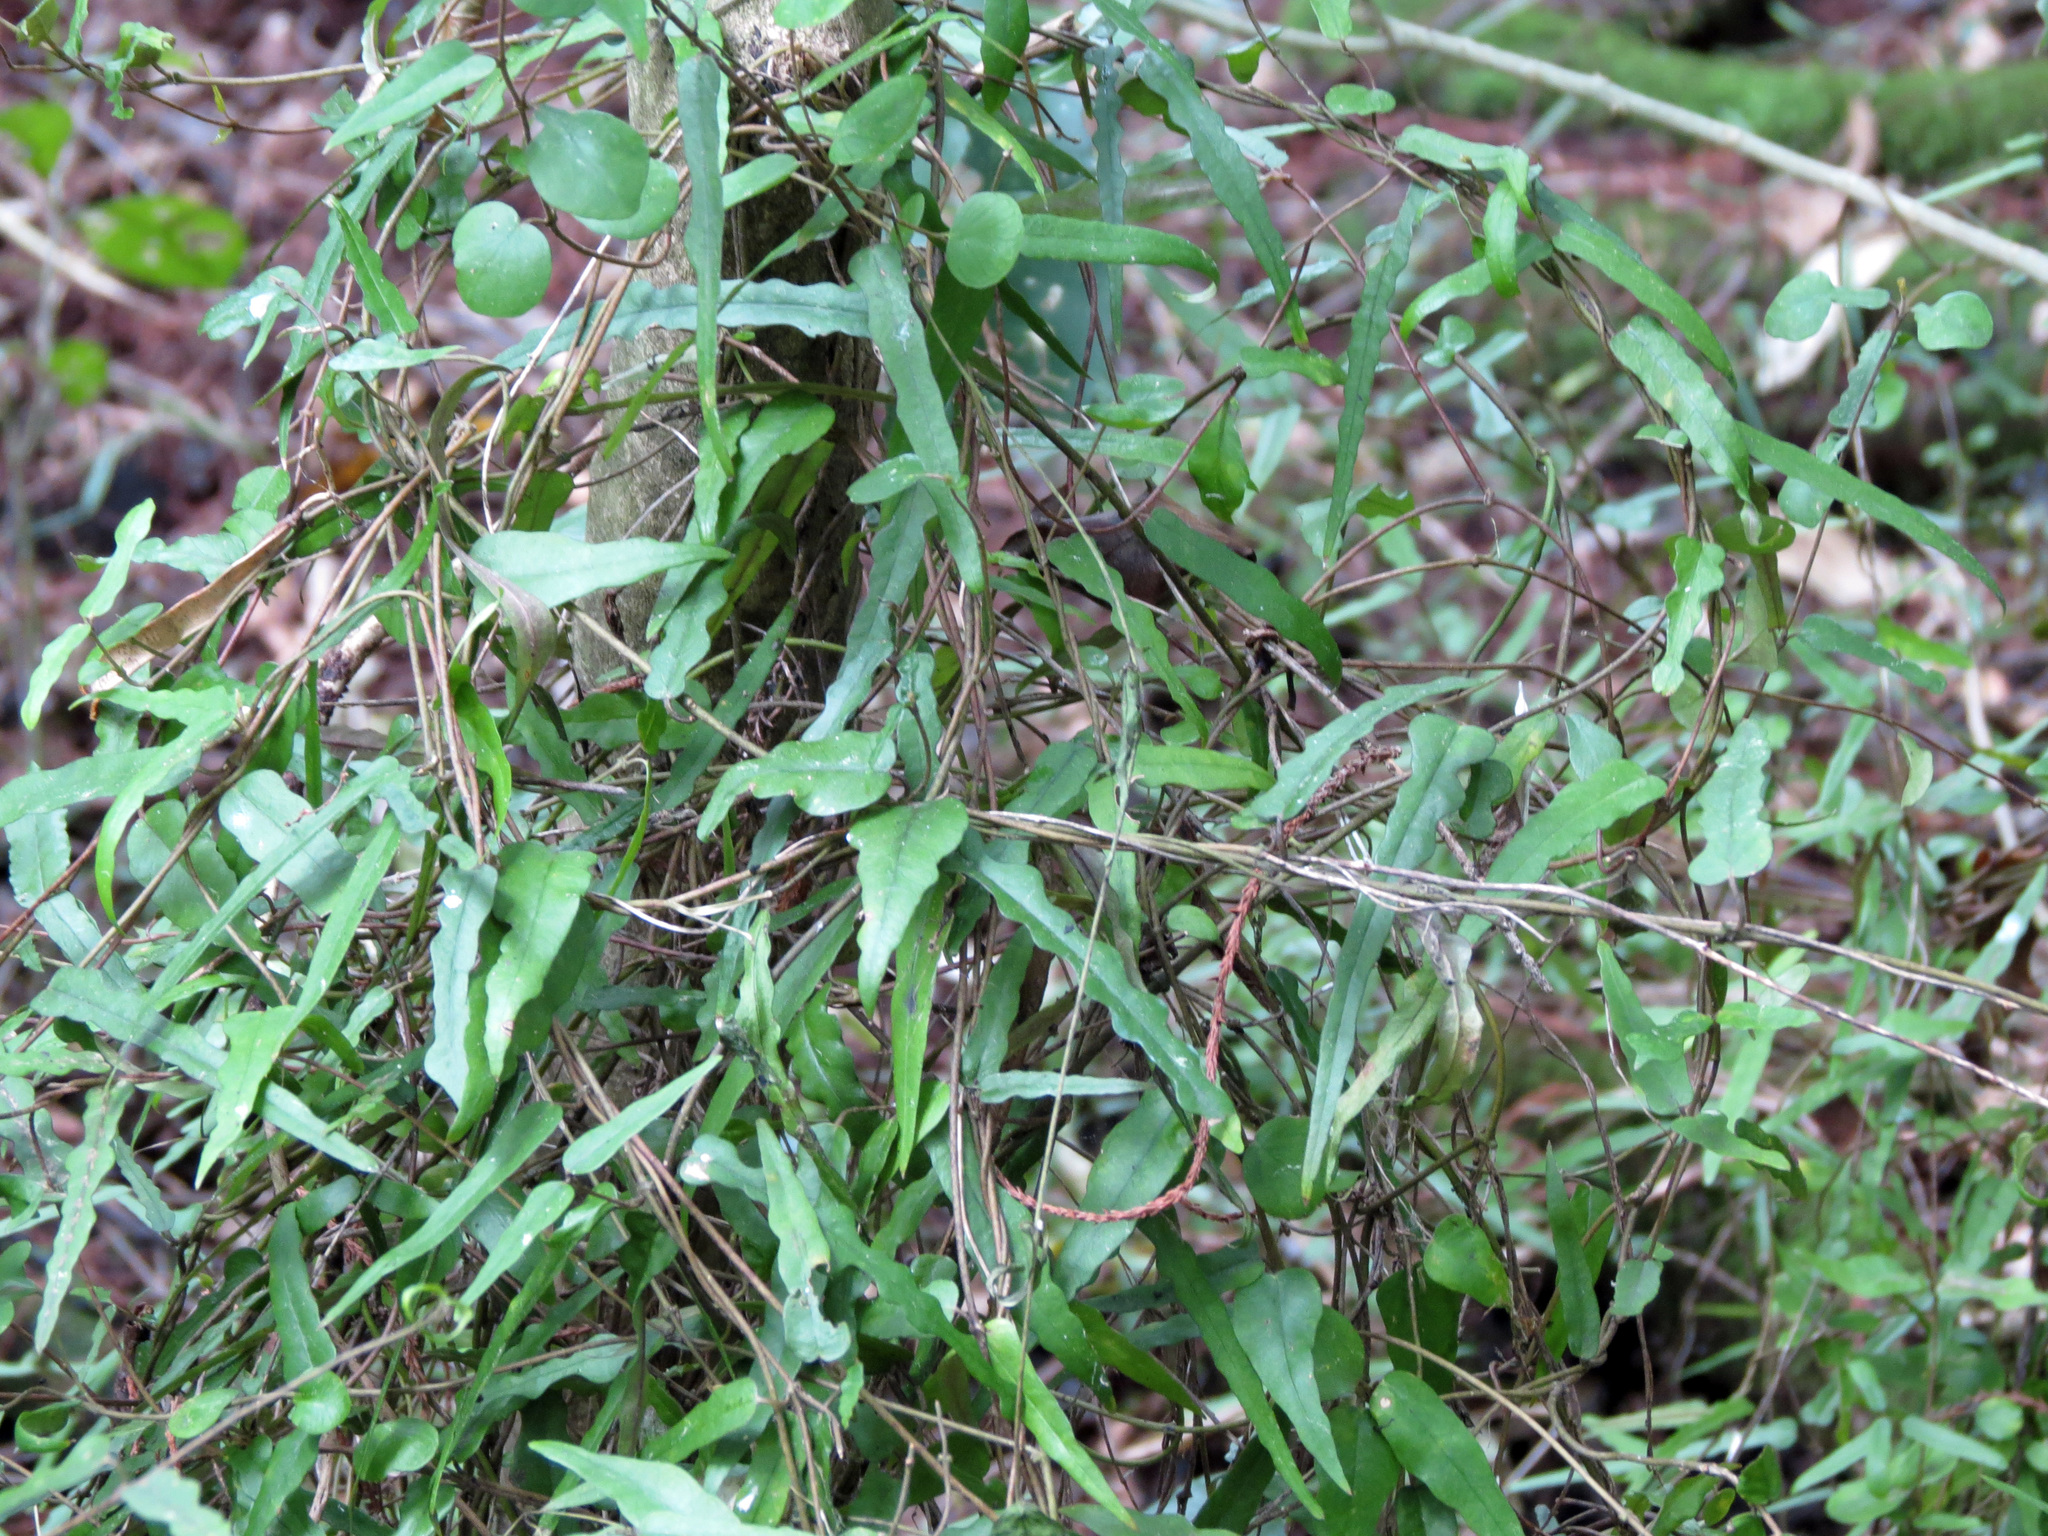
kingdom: Plantae
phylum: Tracheophyta
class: Magnoliopsida
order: Gentianales
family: Apocynaceae
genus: Parsonsia
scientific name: Parsonsia heterophylla
